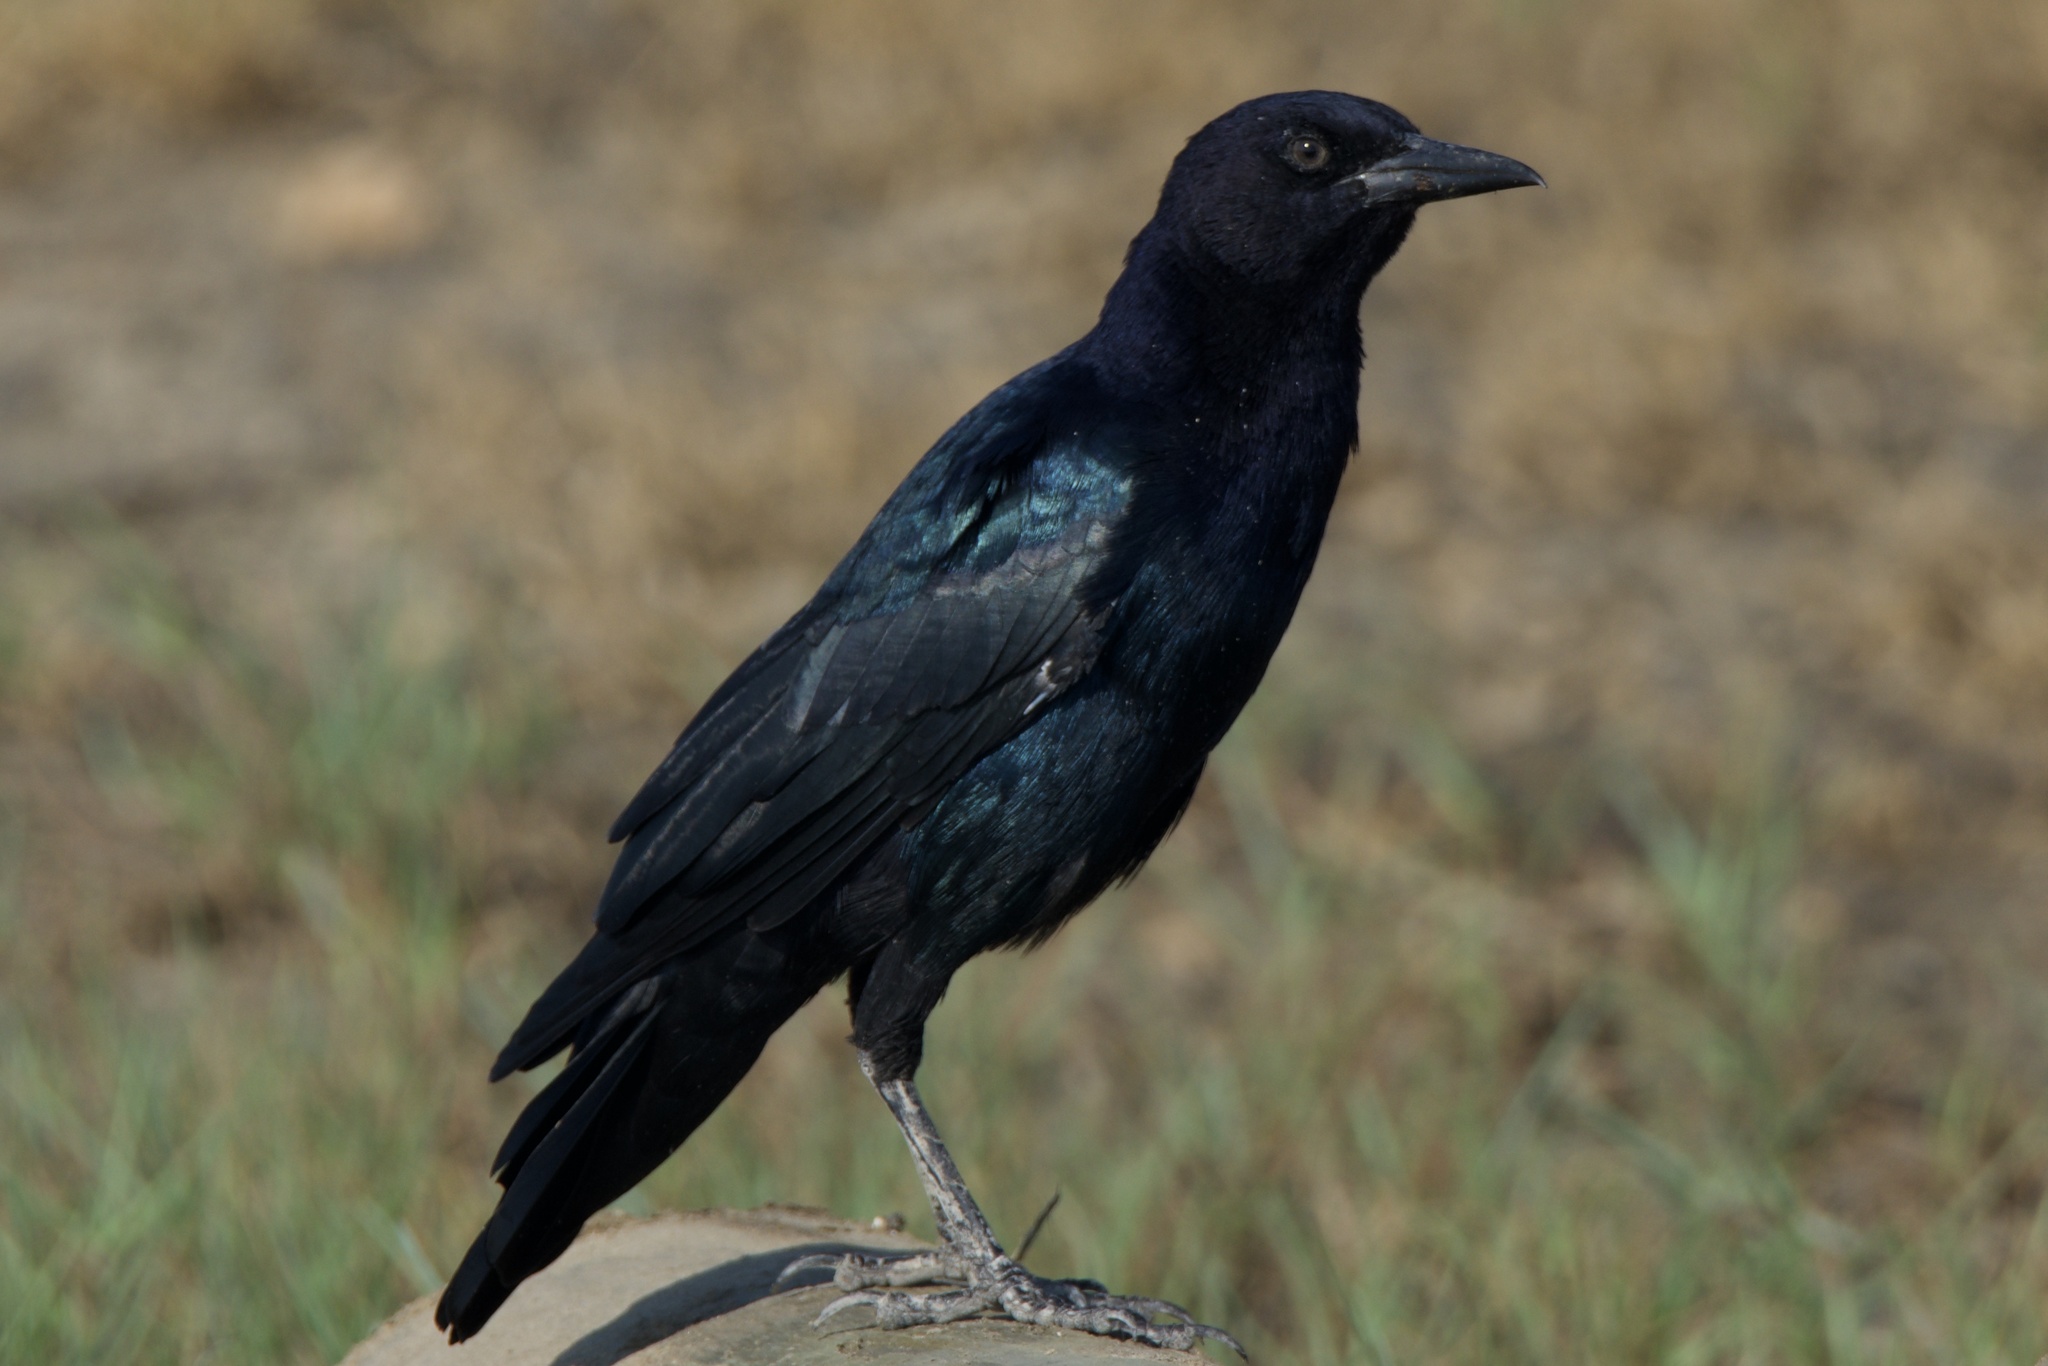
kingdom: Animalia
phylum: Chordata
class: Aves
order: Passeriformes
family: Icteridae
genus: Quiscalus
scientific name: Quiscalus major
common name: Boat-tailed grackle
